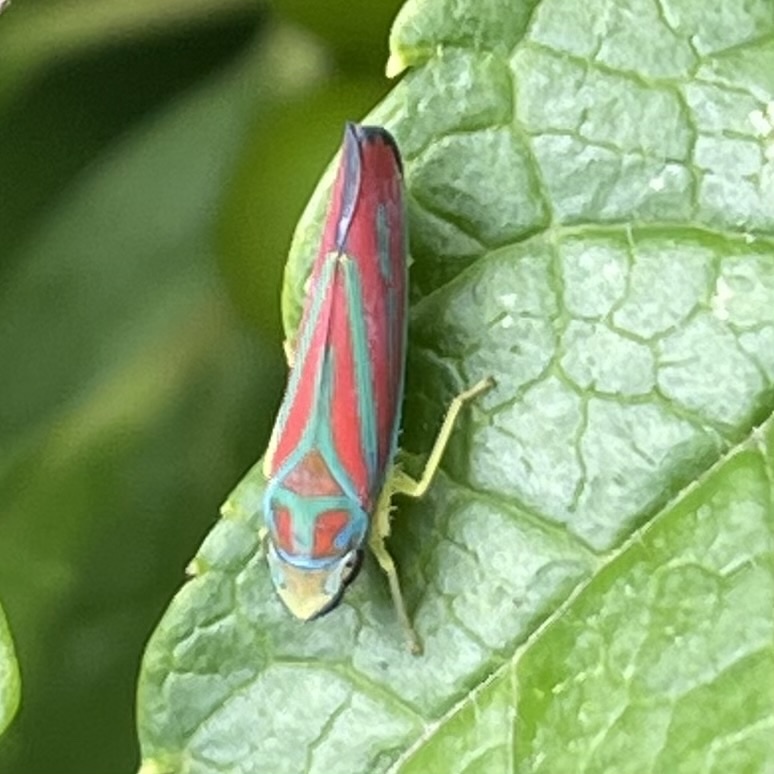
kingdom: Animalia
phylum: Arthropoda
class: Insecta
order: Hemiptera
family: Cicadellidae
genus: Graphocephala
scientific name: Graphocephala coccinea
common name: Candy-striped leafhopper
